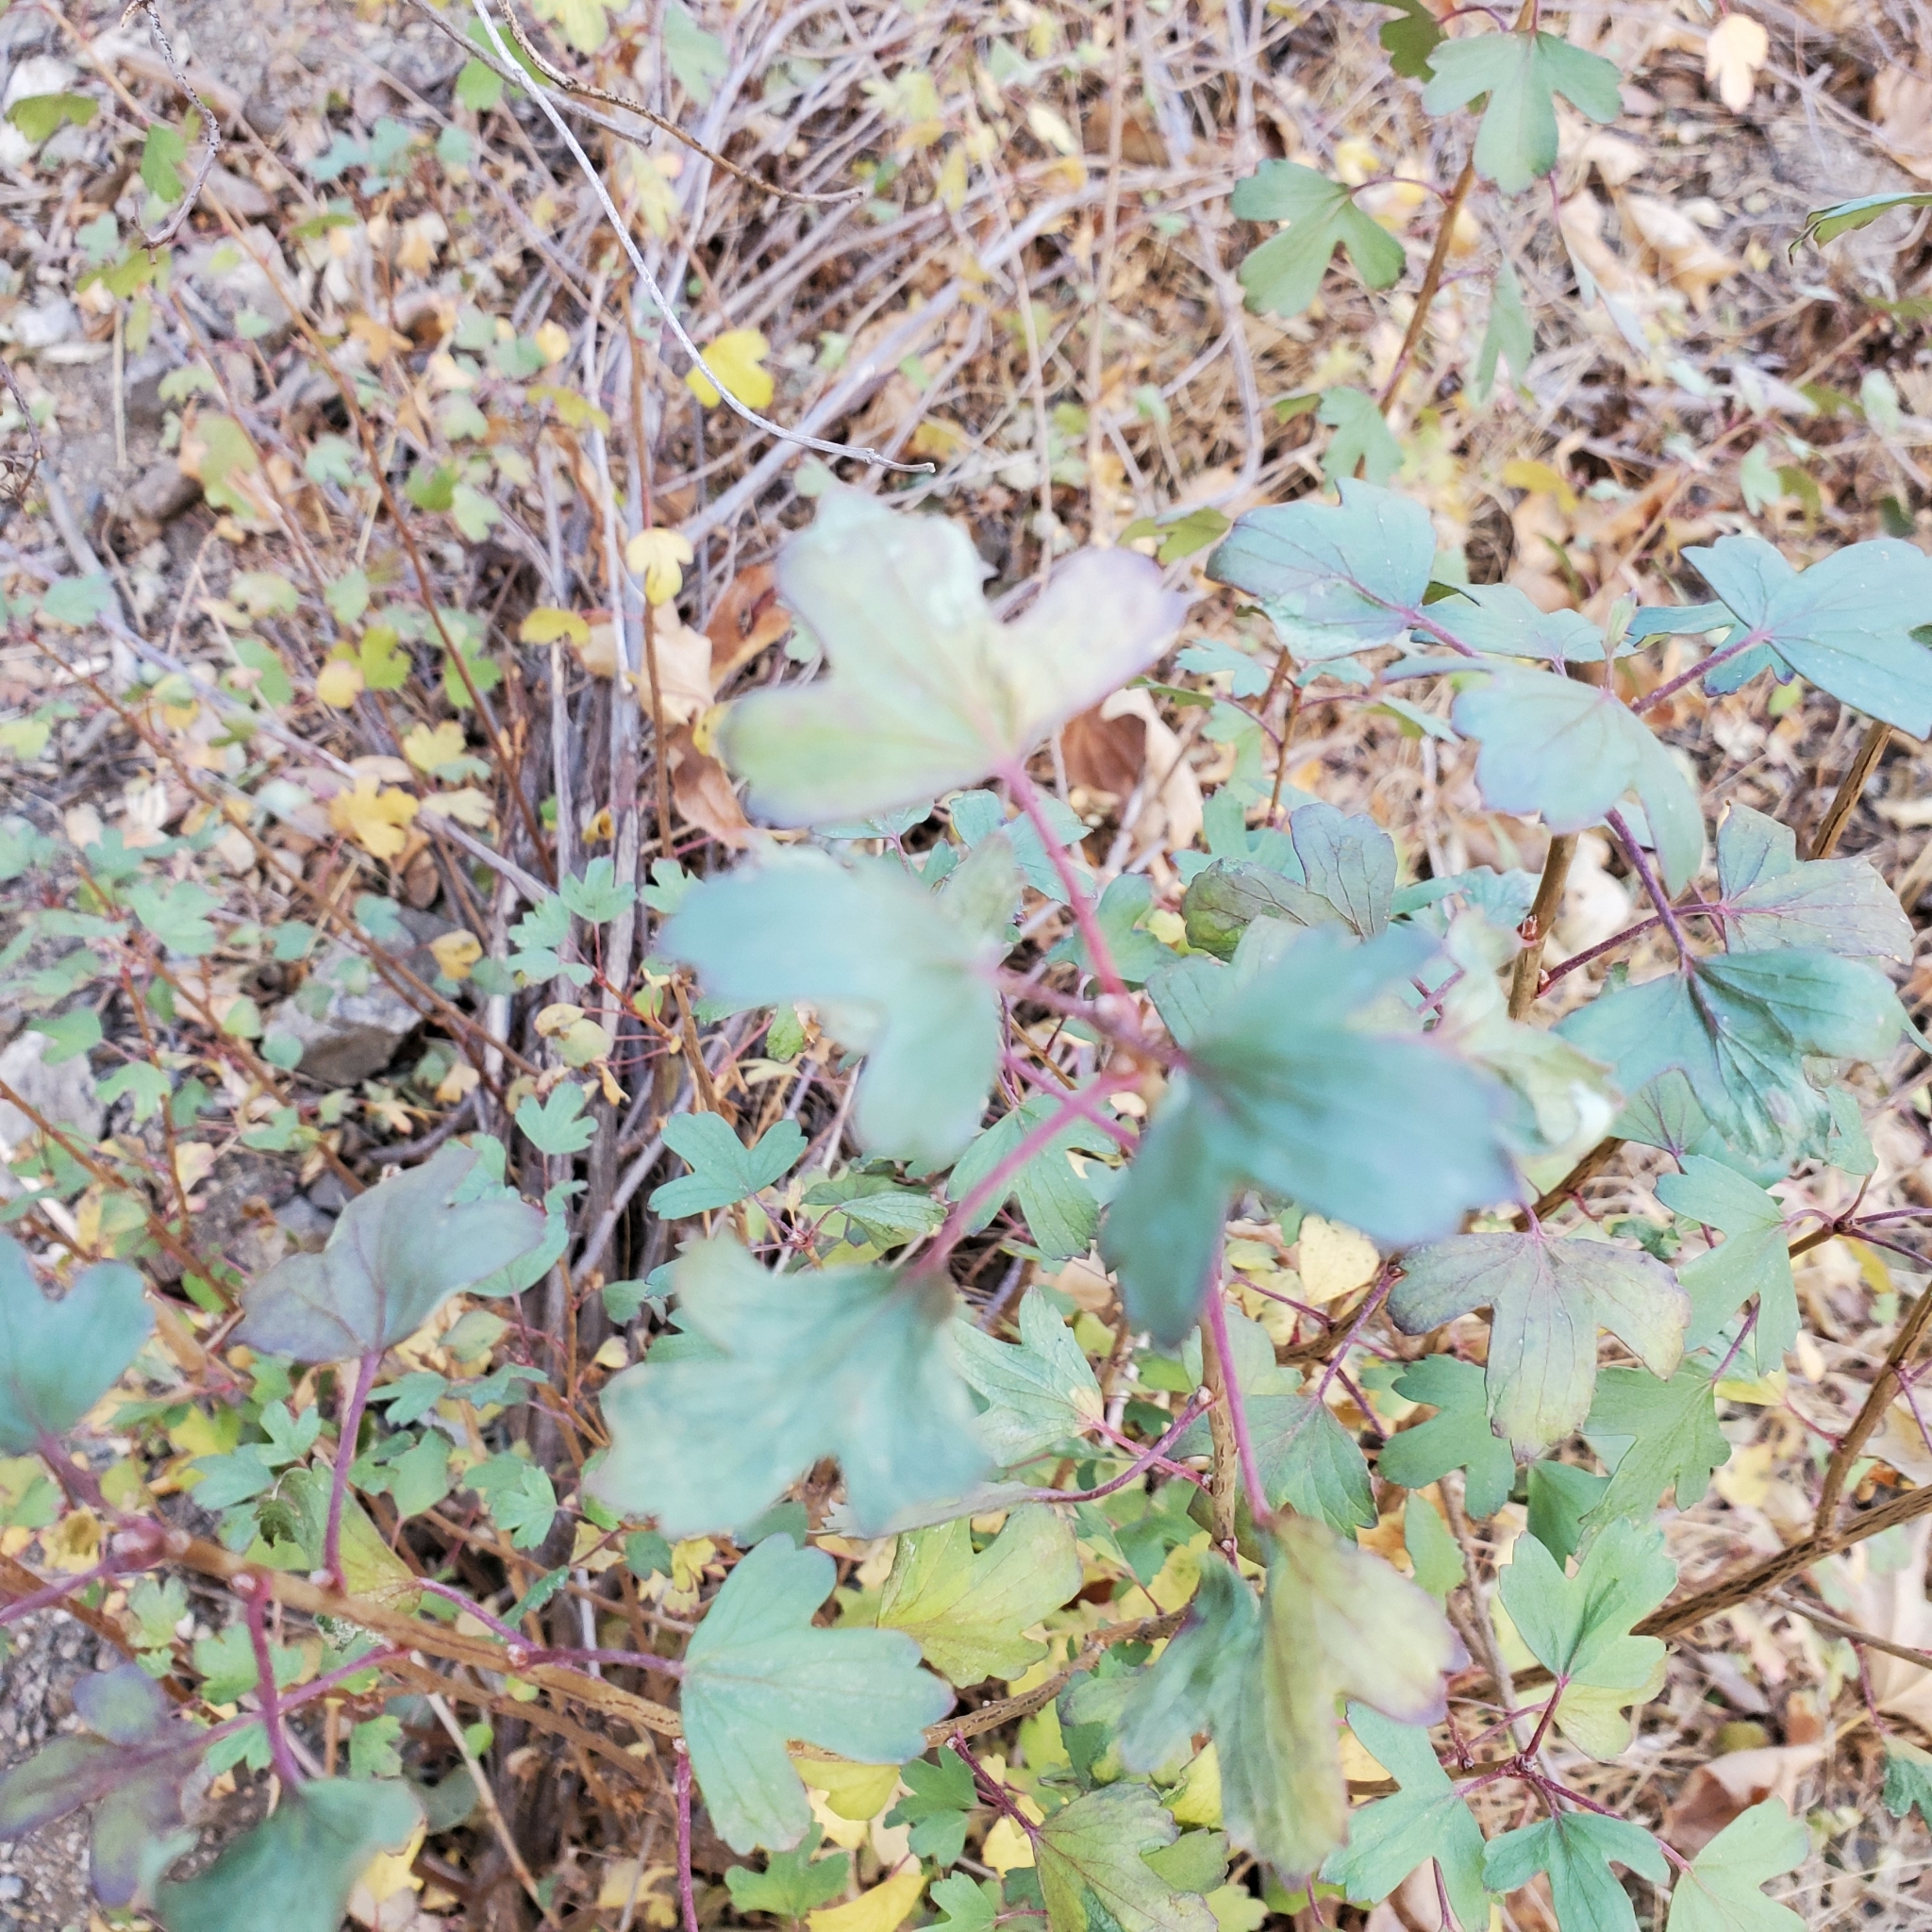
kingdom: Plantae
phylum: Tracheophyta
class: Magnoliopsida
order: Saxifragales
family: Grossulariaceae
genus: Ribes
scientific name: Ribes aureum
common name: Golden currant
